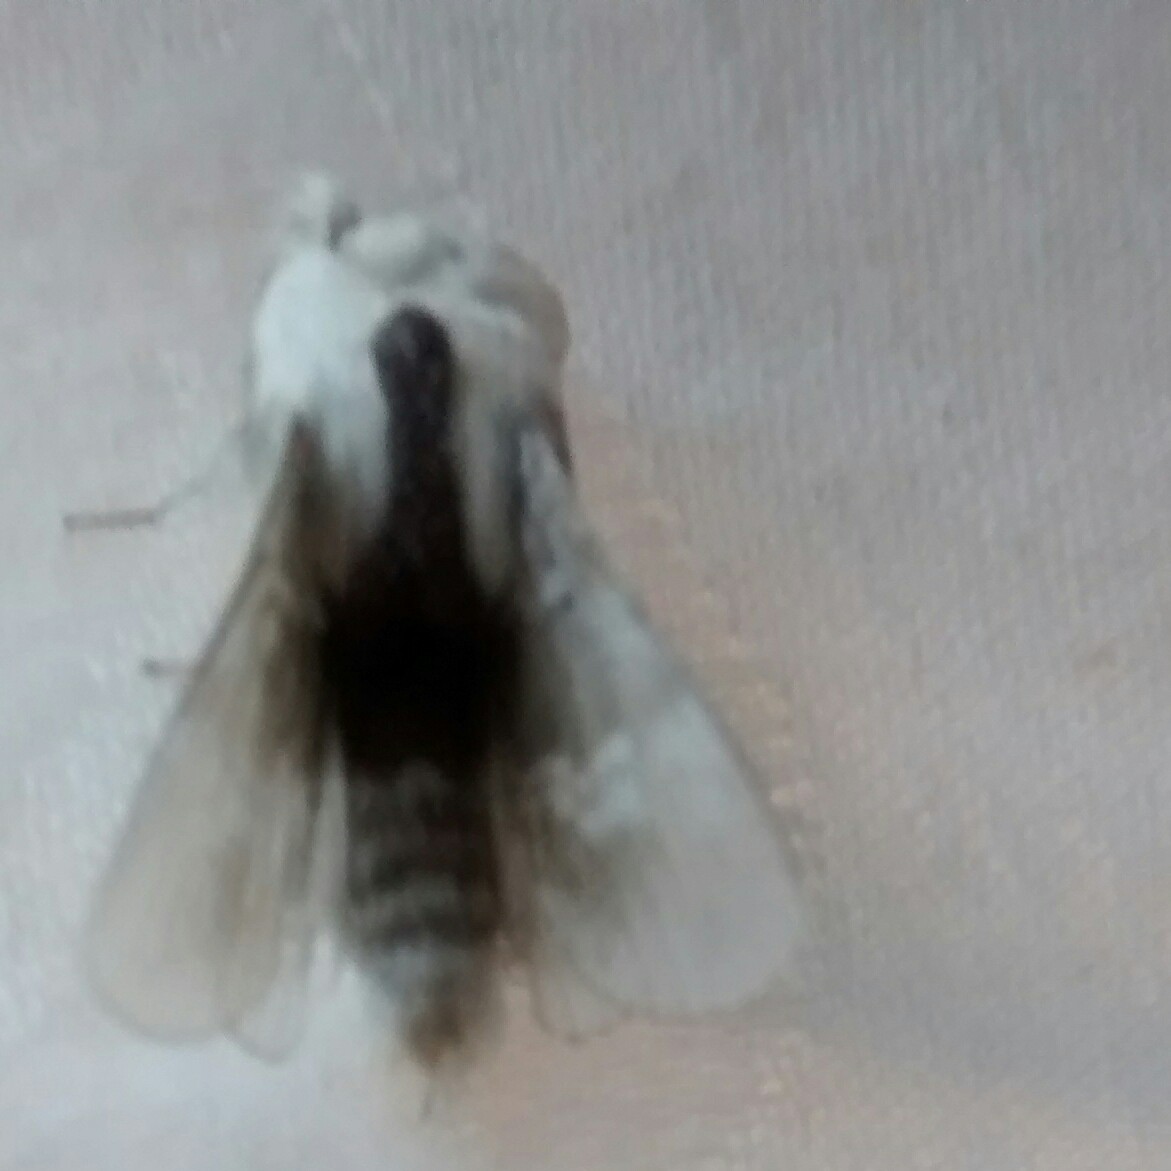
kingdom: Animalia
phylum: Arthropoda
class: Insecta
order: Lepidoptera
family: Lasiocampidae
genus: Tolype
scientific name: Tolype velleda
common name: Large tolype moth
